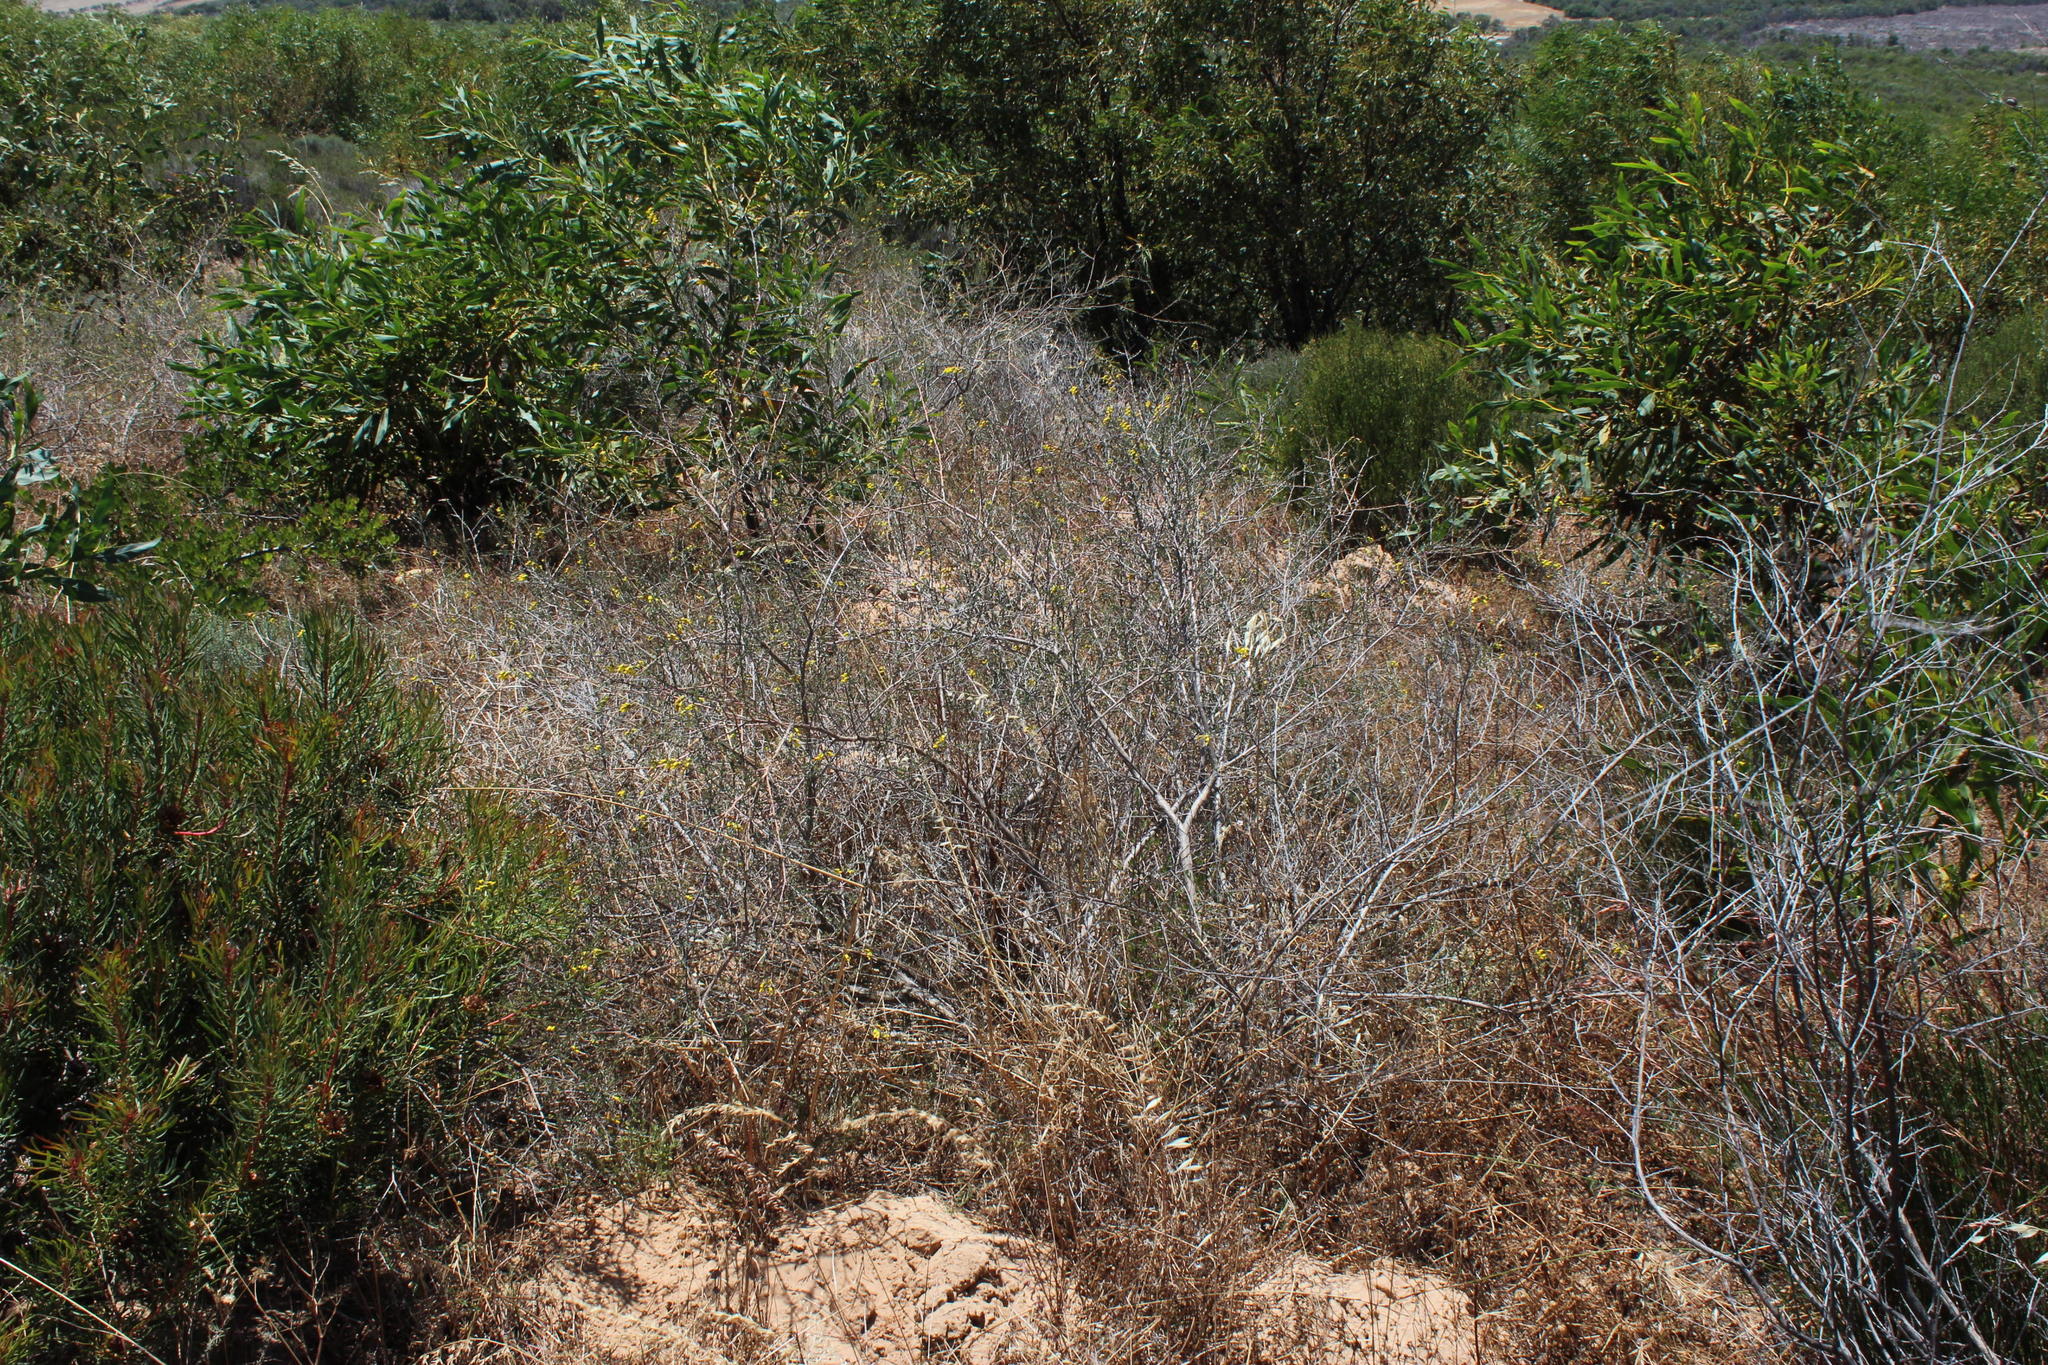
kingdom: Plantae
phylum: Tracheophyta
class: Magnoliopsida
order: Fabales
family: Fabaceae
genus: Wiborgia
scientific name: Wiborgia obcordata
